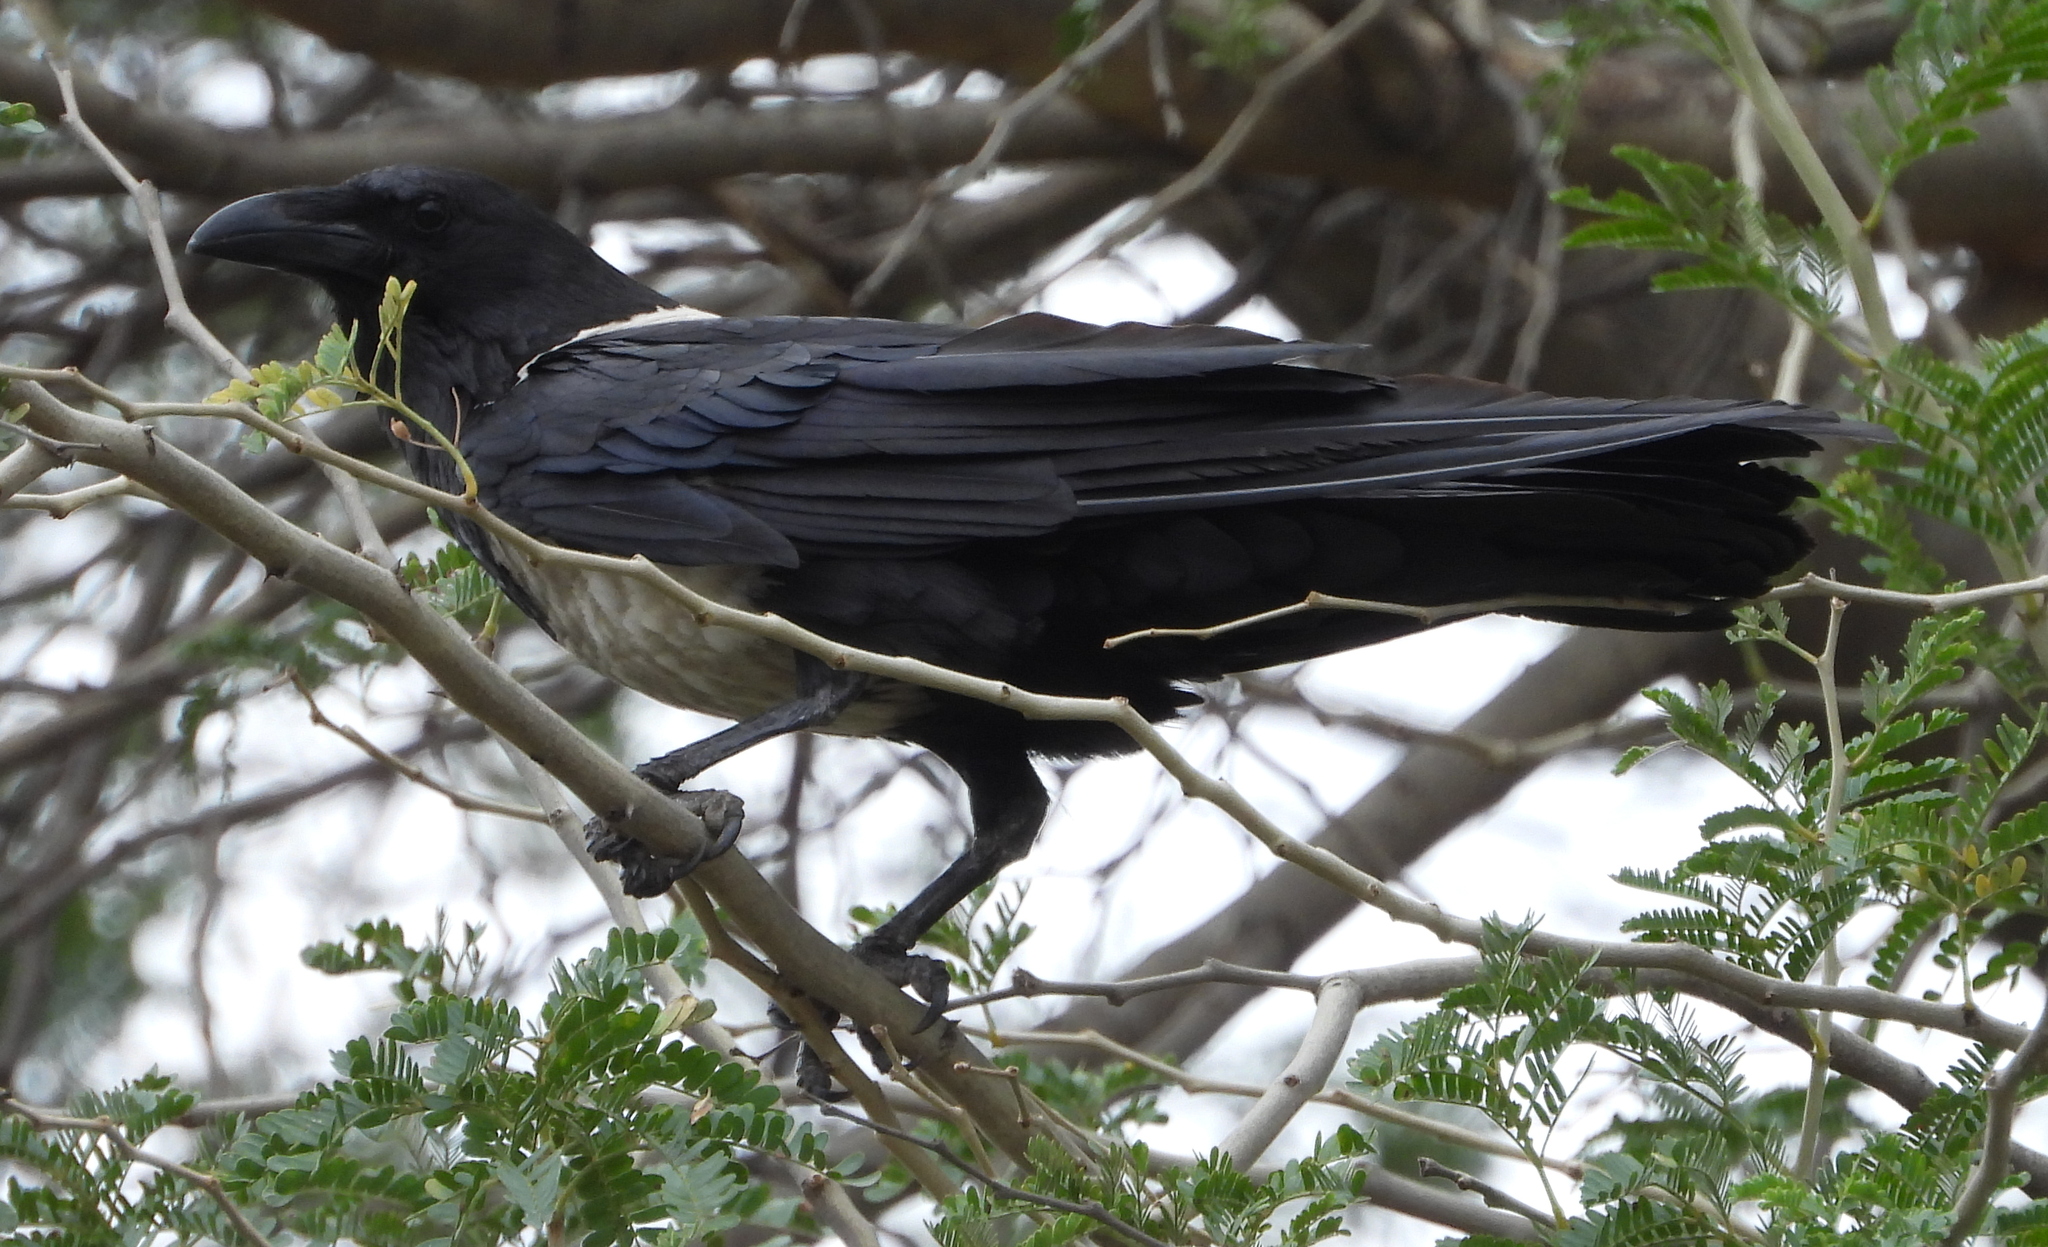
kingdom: Animalia
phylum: Chordata
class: Aves
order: Passeriformes
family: Corvidae
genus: Corvus
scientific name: Corvus albus
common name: Pied crow
